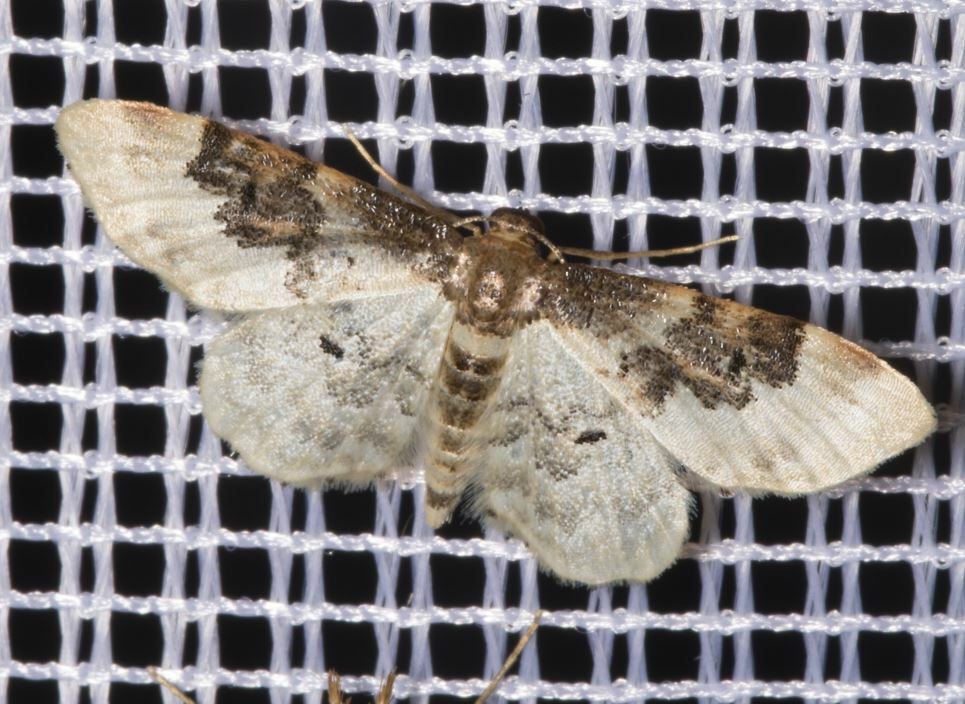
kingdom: Animalia
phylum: Arthropoda
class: Insecta
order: Lepidoptera
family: Geometridae
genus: Idaea
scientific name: Idaea rusticata
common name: Least carpet
